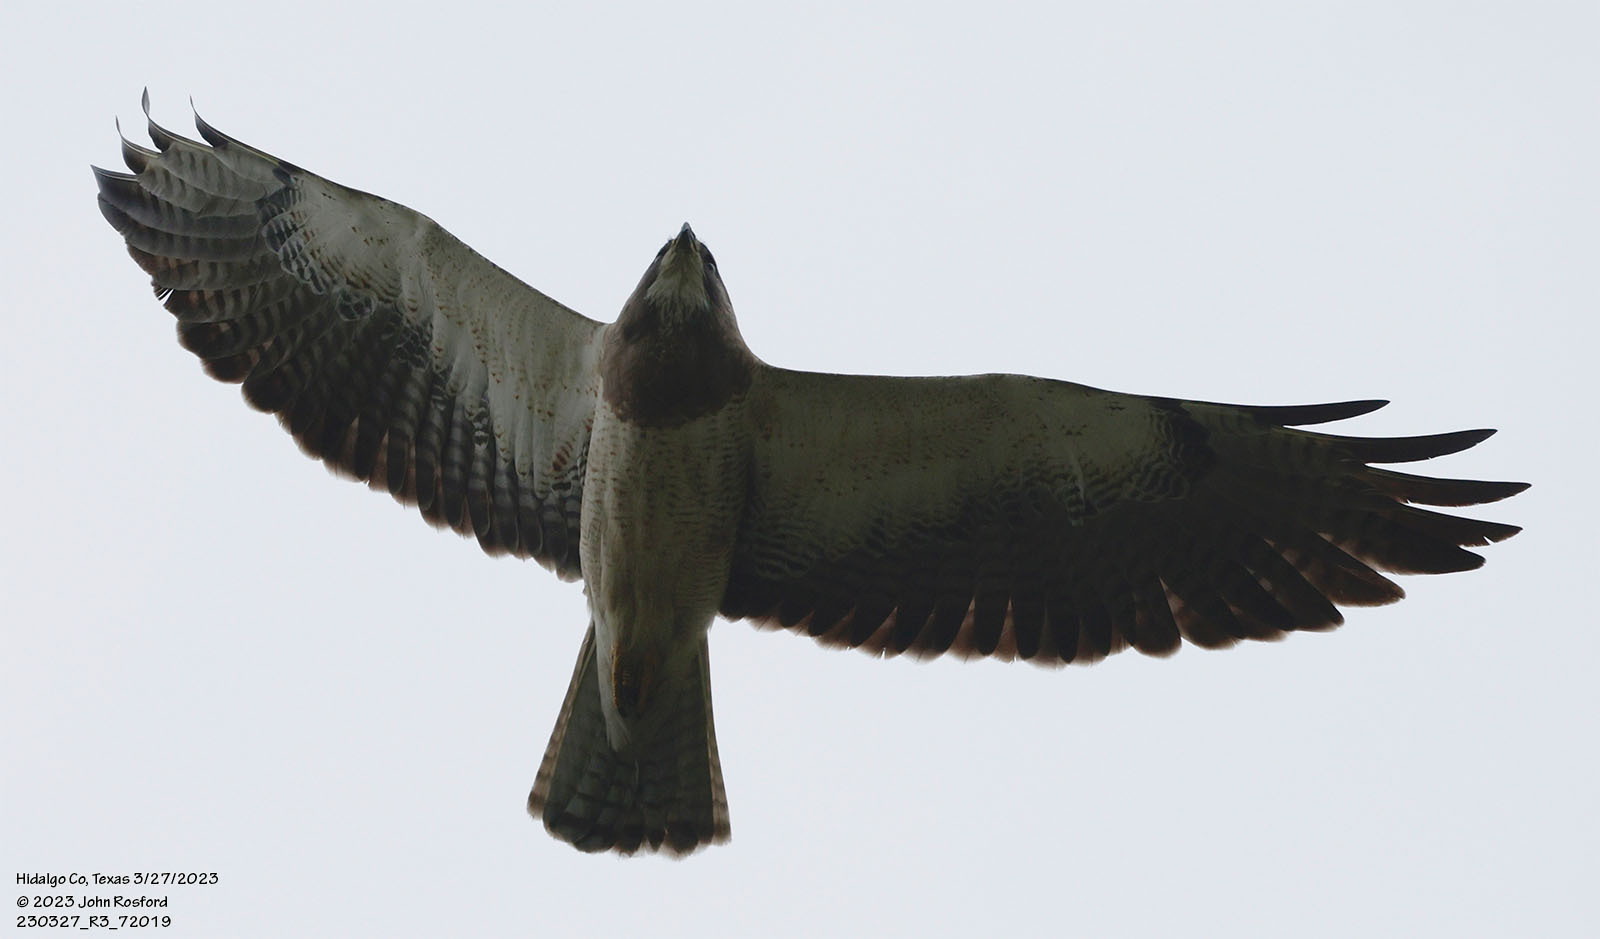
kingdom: Animalia
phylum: Chordata
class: Aves
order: Accipitriformes
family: Accipitridae
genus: Buteo
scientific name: Buteo swainsoni
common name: Swainson's hawk
